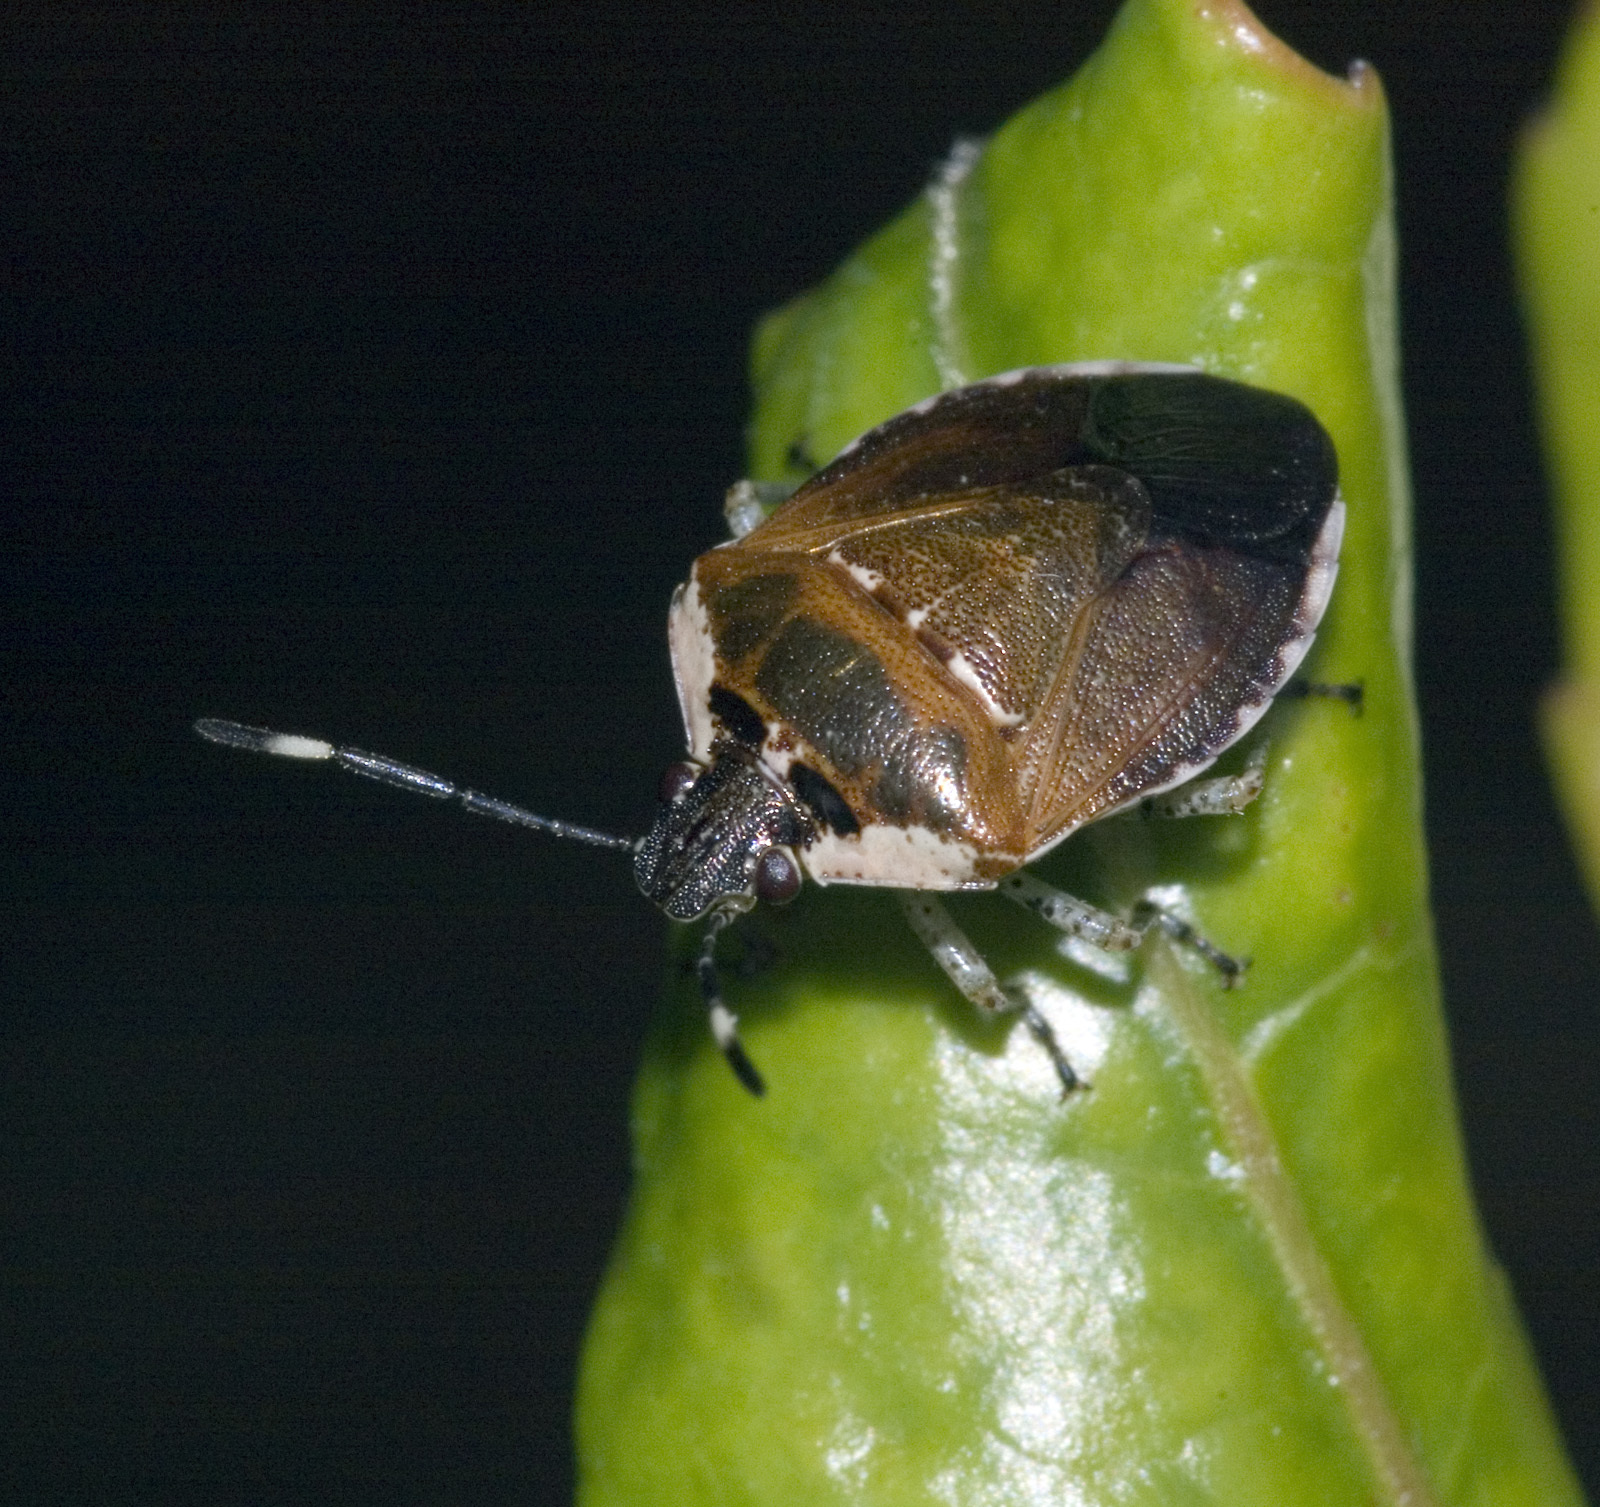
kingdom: Animalia
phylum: Arthropoda
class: Insecta
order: Hemiptera
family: Pentatomidae
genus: Monteithiella
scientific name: Monteithiella
